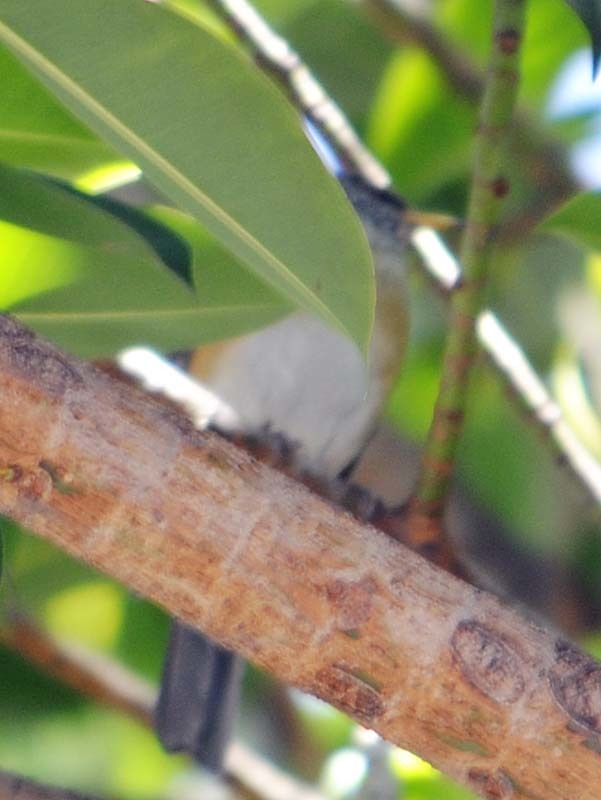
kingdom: Animalia
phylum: Chordata
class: Aves
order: Passeriformes
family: Turdidae
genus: Turdus
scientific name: Turdus rufopalliatus
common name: Rufous-backed robin
